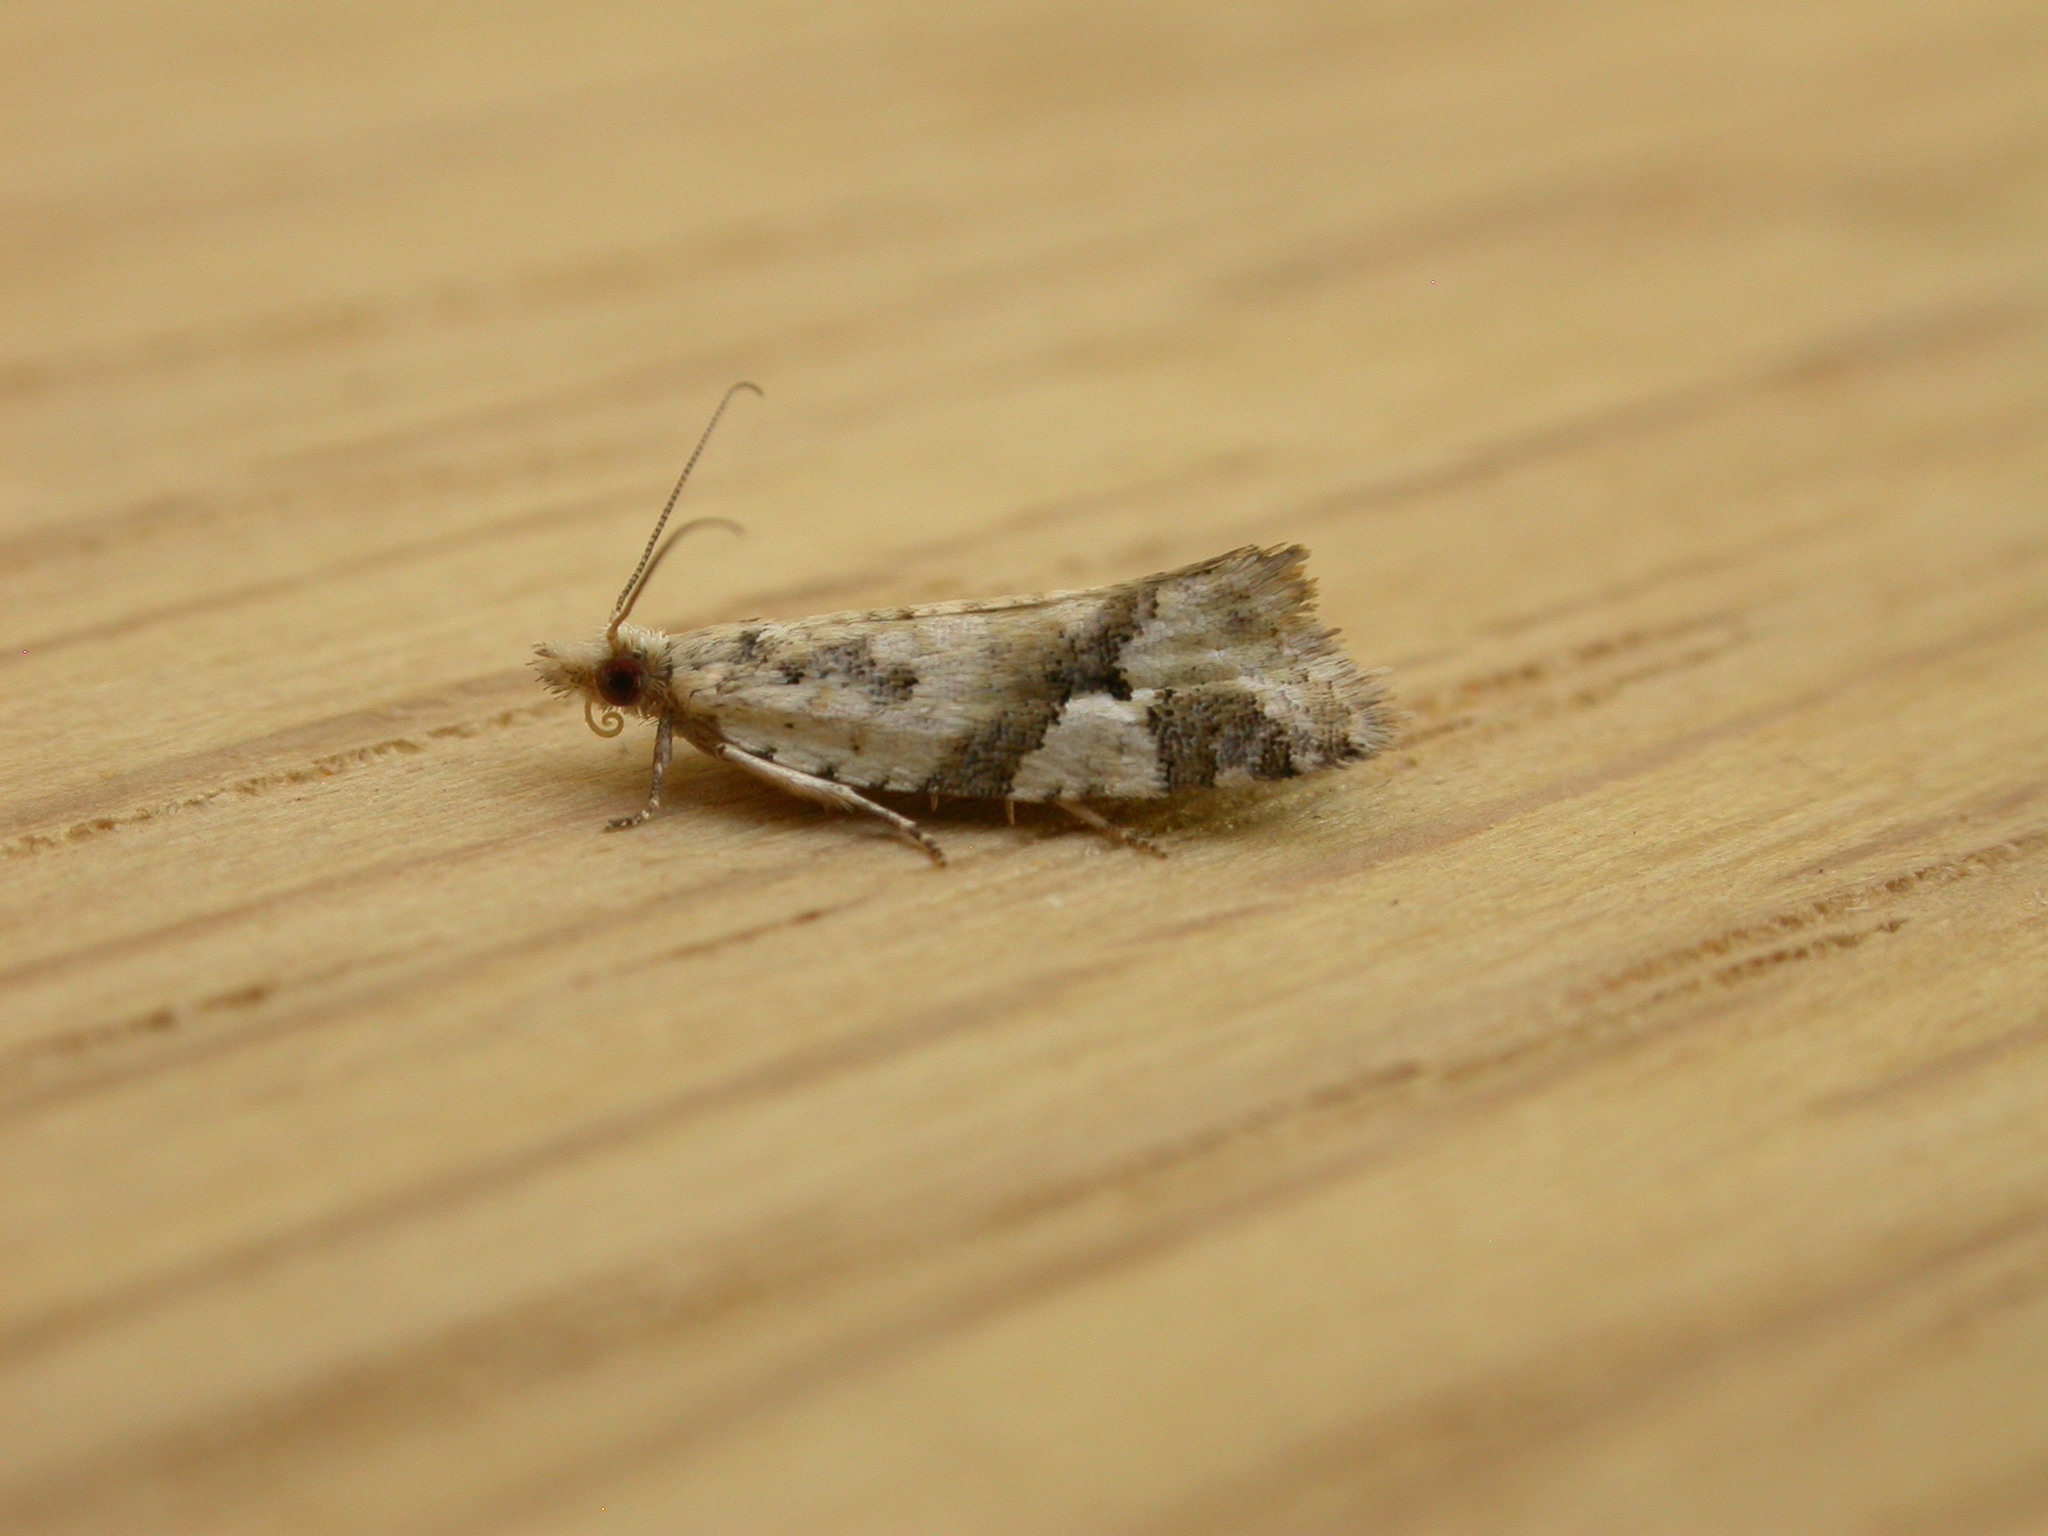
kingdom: Animalia
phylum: Arthropoda
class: Insecta
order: Lepidoptera
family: Tortricidae
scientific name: Tortricidae
